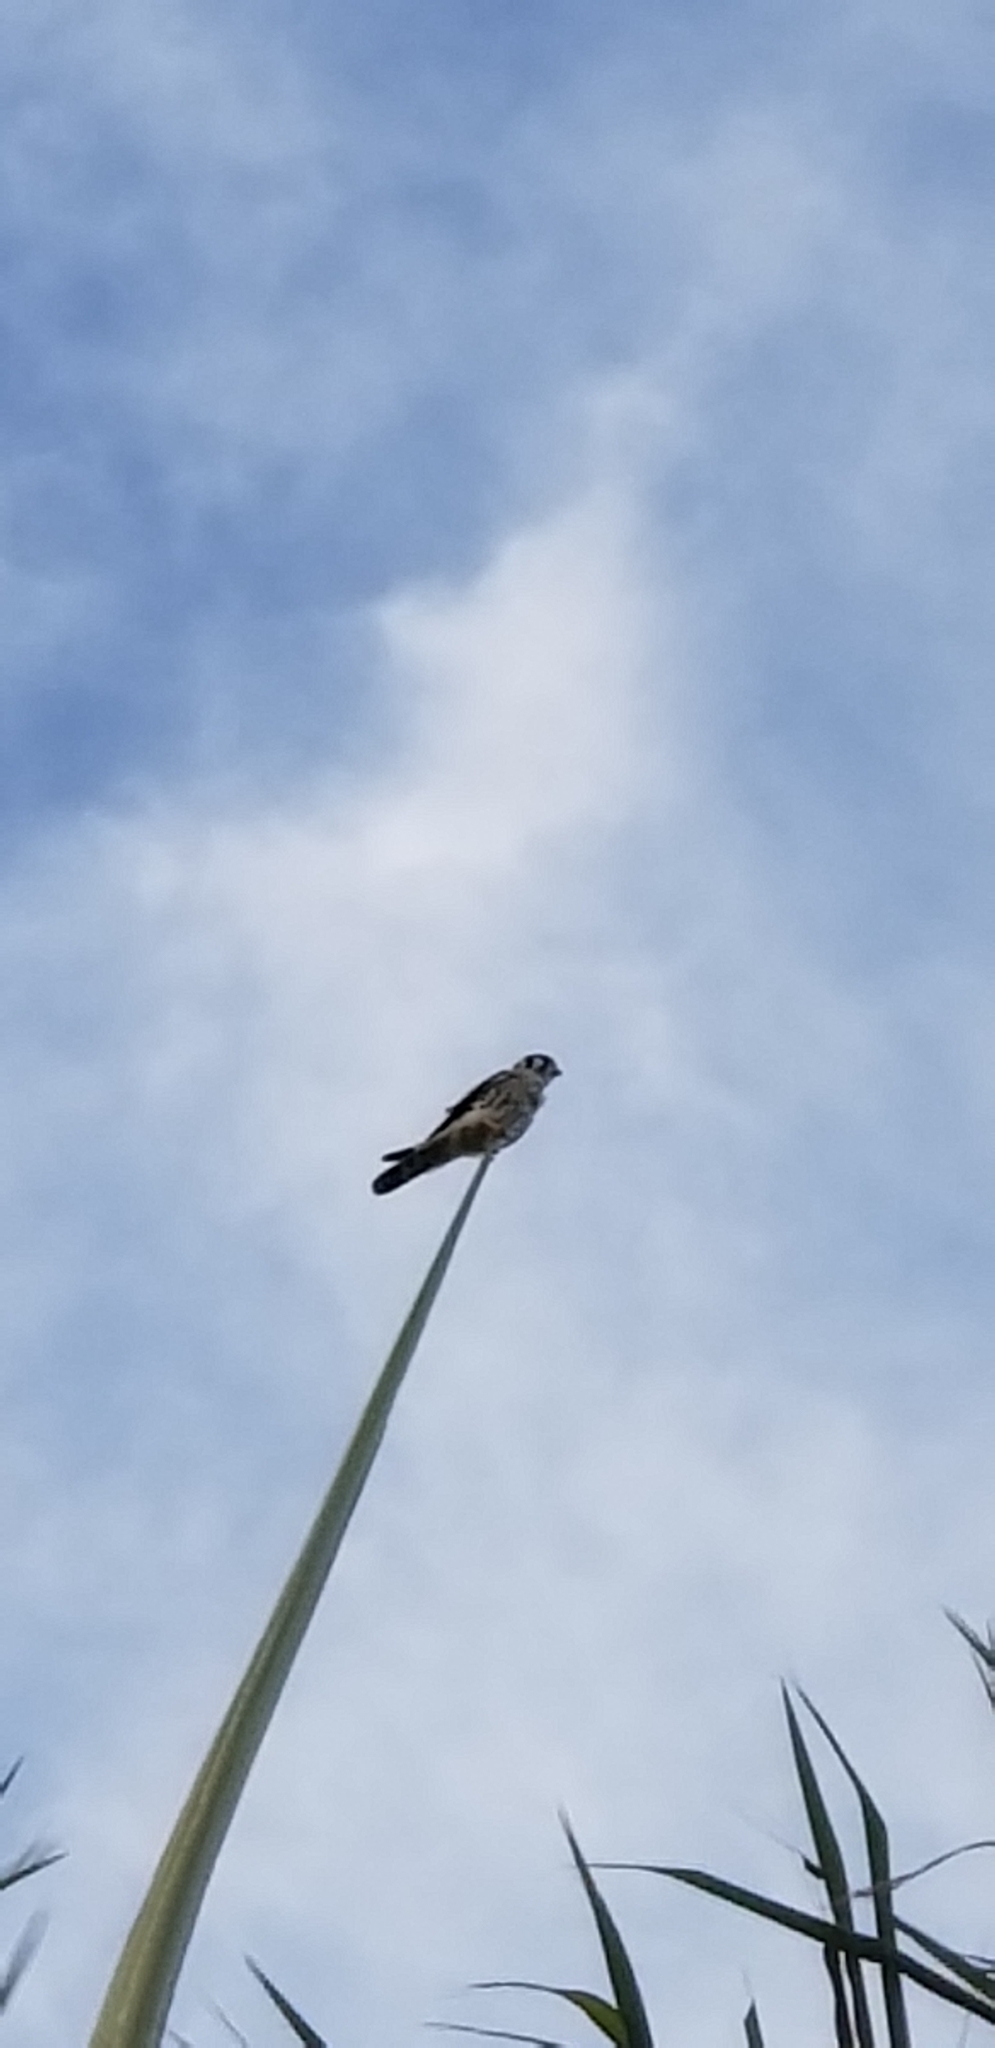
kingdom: Animalia
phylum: Chordata
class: Aves
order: Falconiformes
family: Falconidae
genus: Falco
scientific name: Falco sparverius
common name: American kestrel
